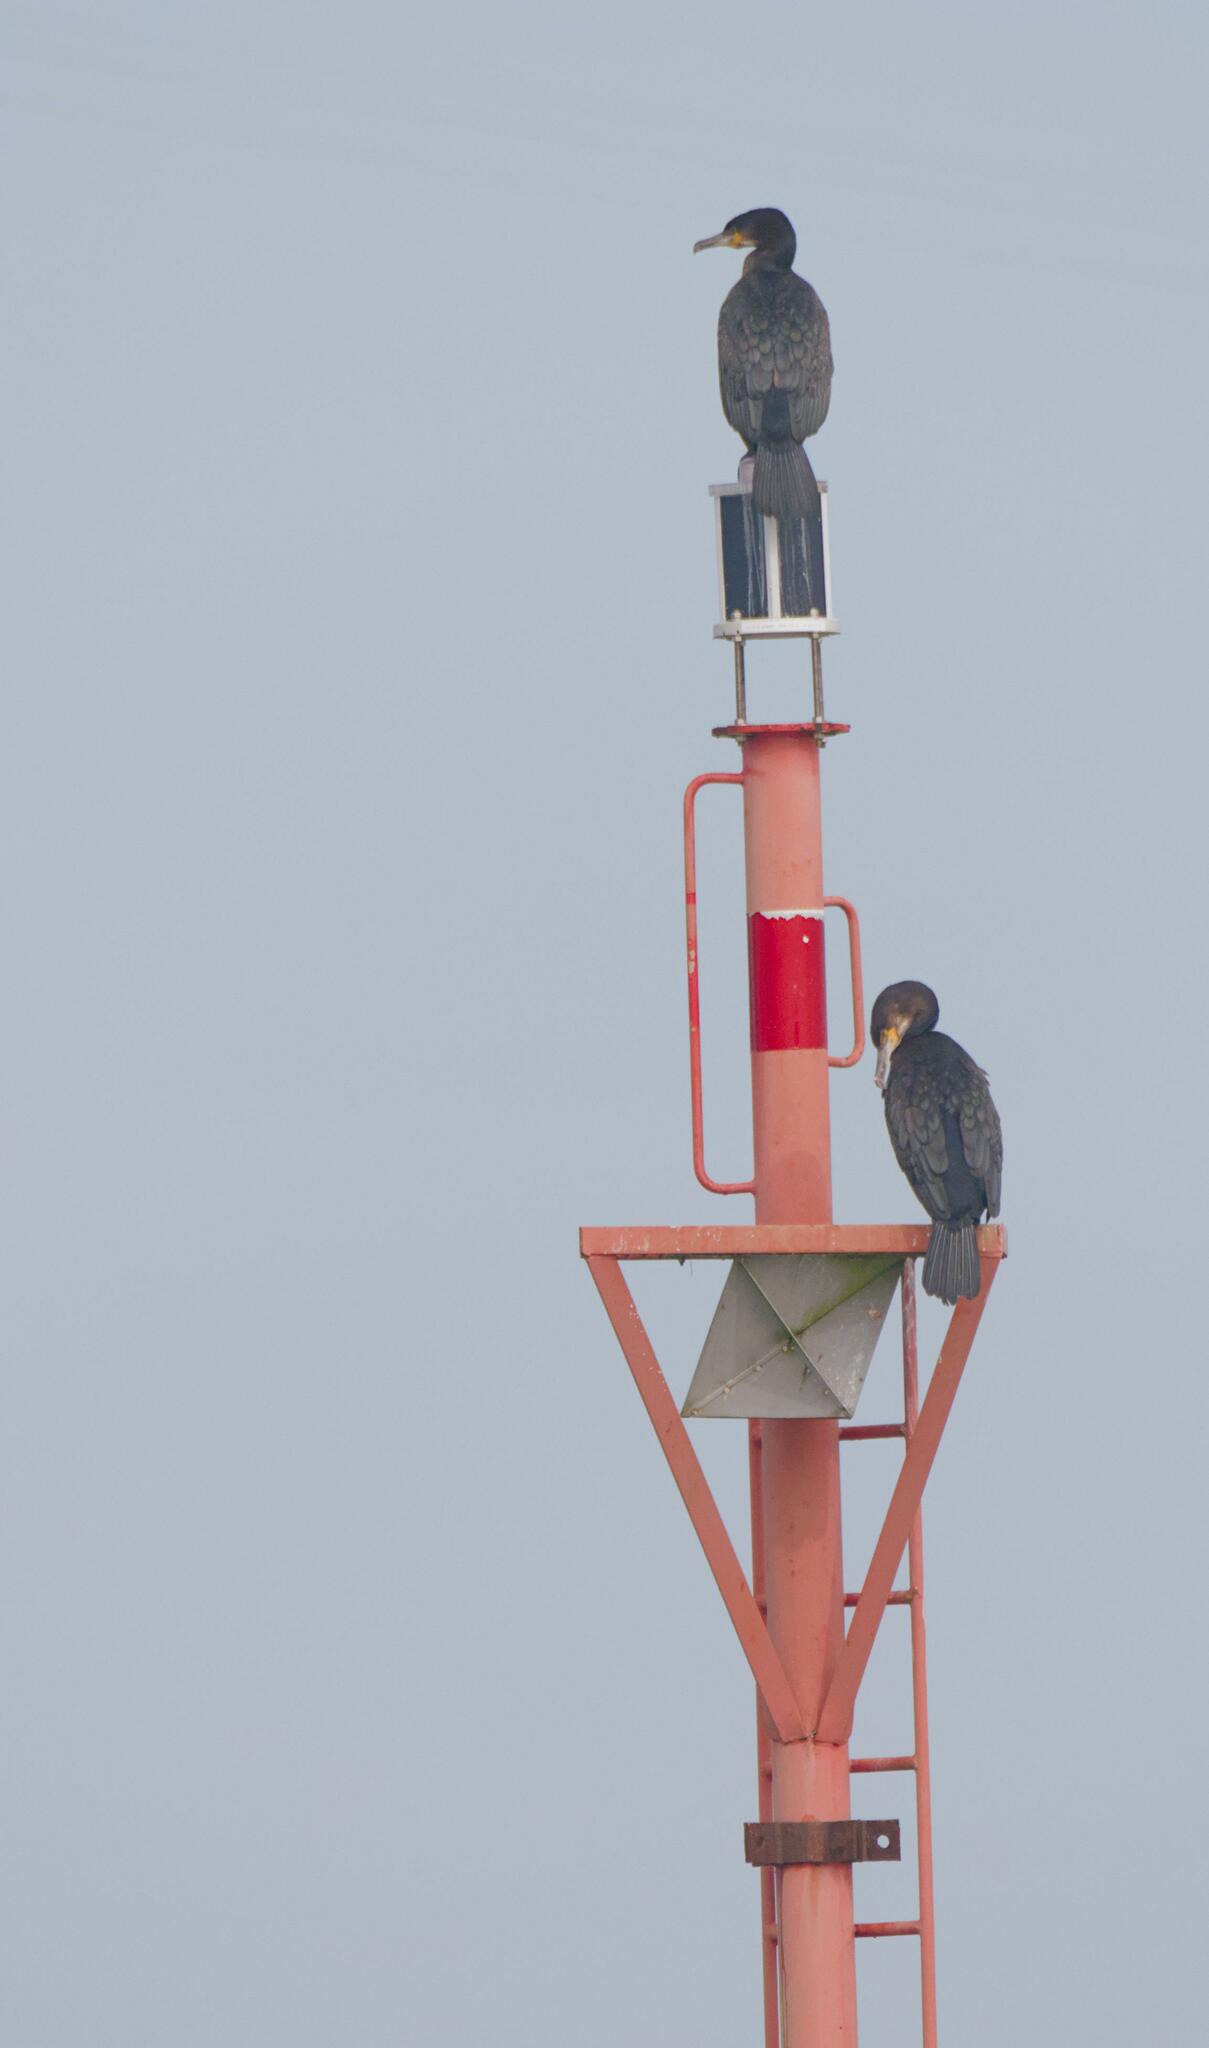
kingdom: Animalia
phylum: Chordata
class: Aves
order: Suliformes
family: Phalacrocoracidae
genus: Phalacrocorax
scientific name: Phalacrocorax carbo
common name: Great cormorant
